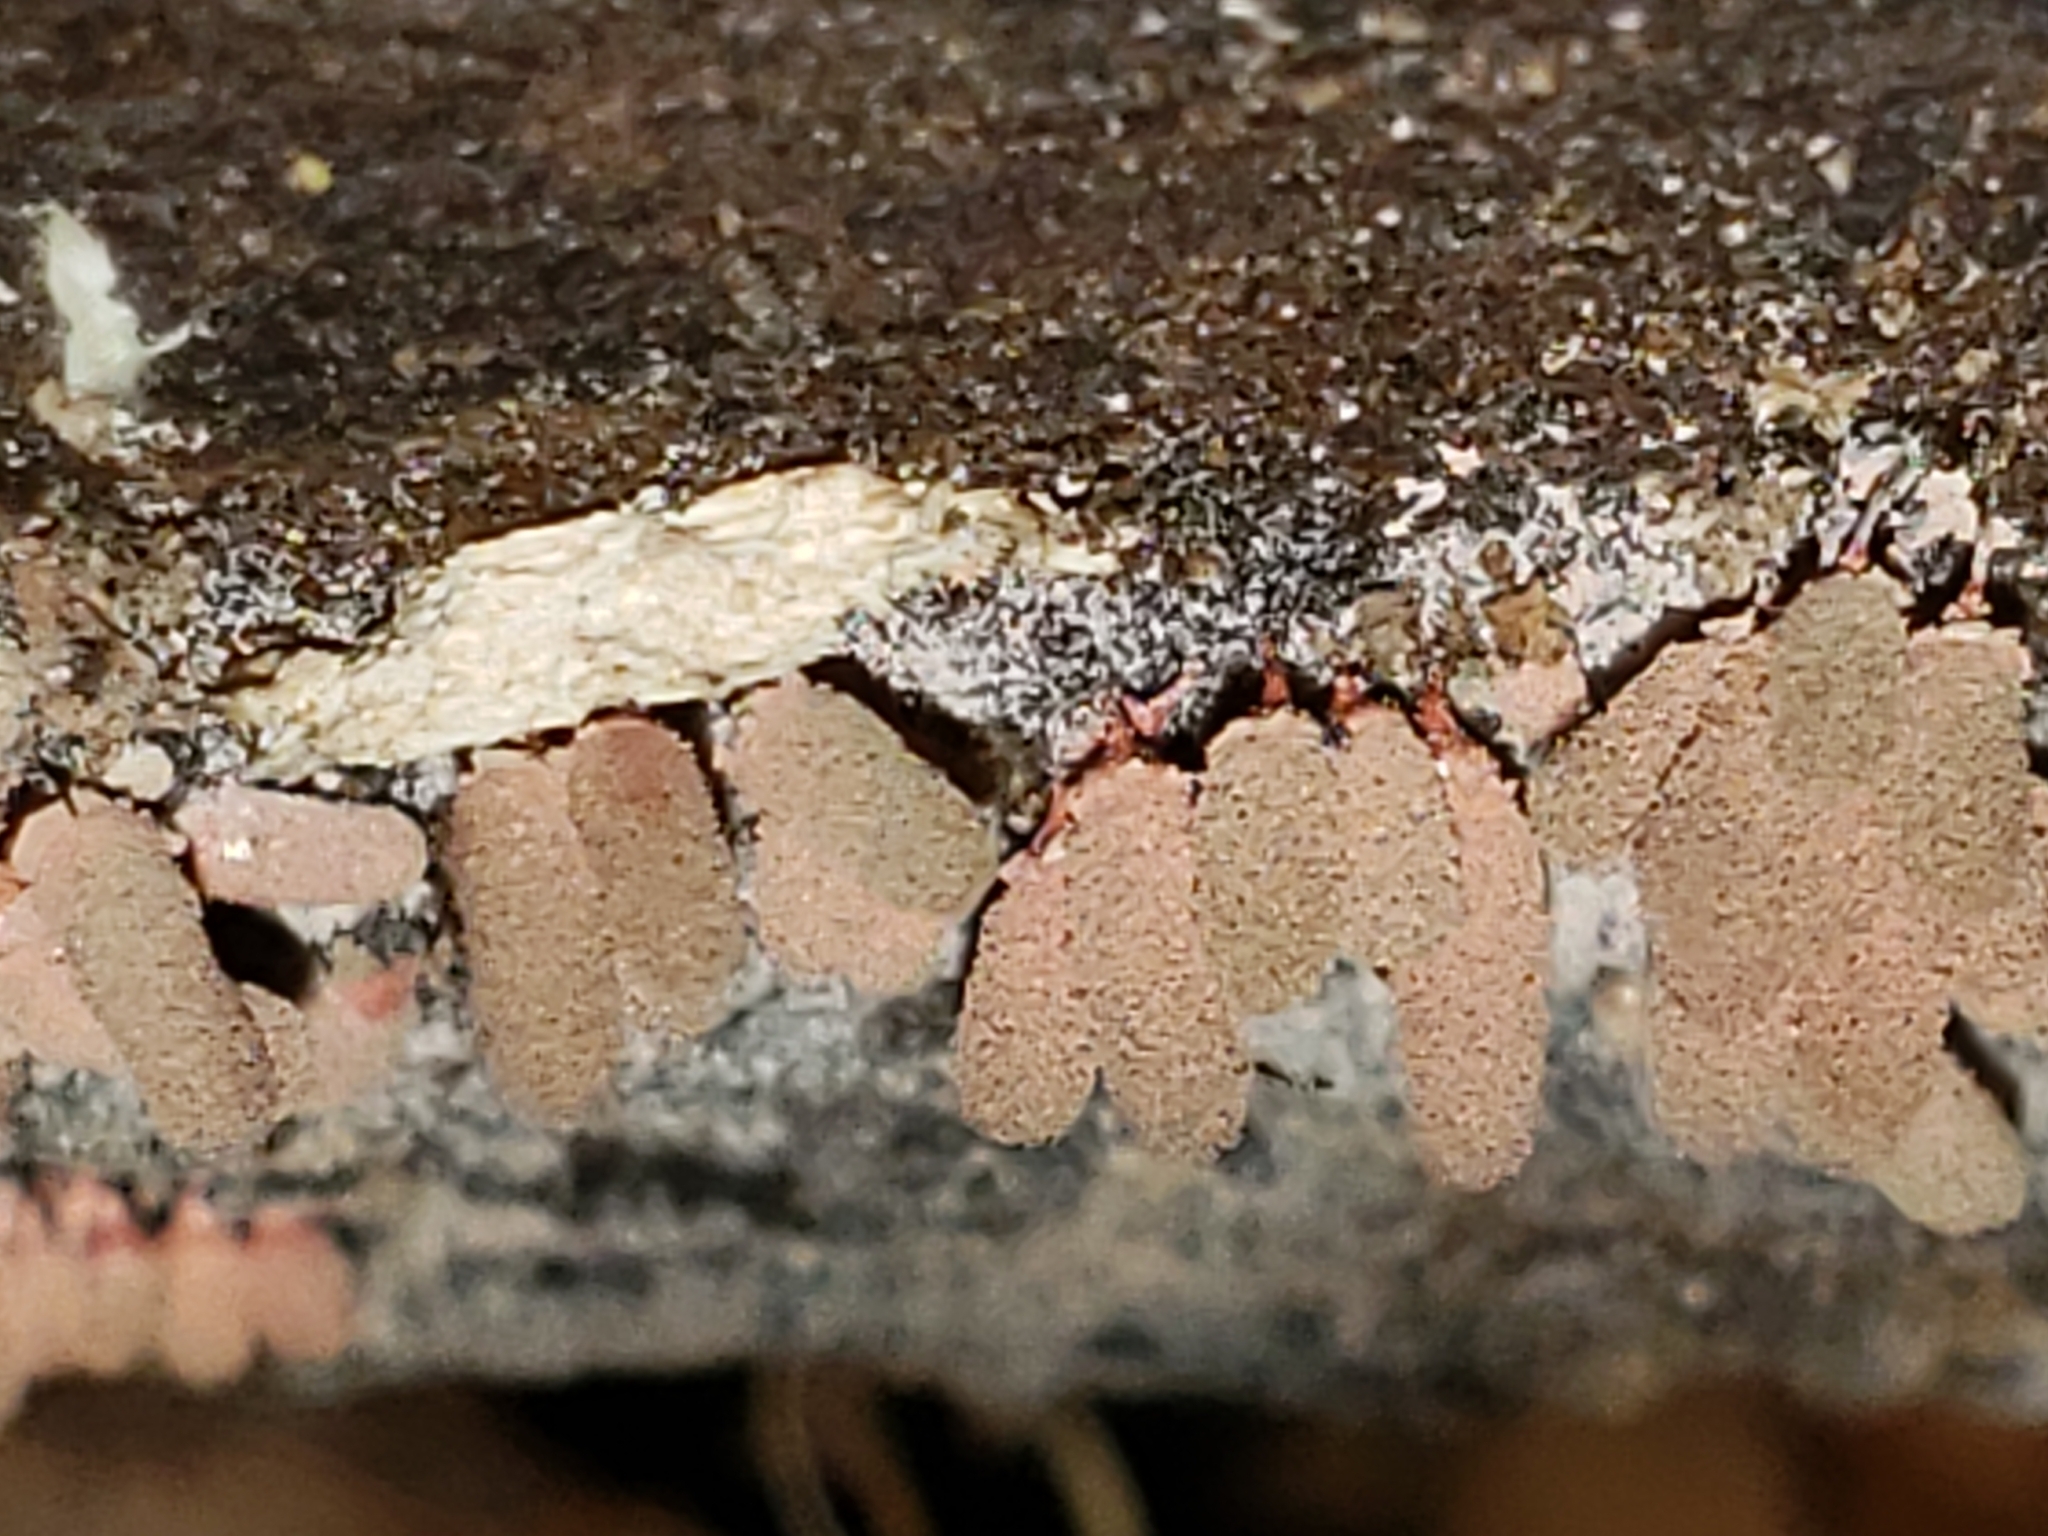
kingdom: Protozoa
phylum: Mycetozoa
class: Myxomycetes
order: Trichiales
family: Arcyriaceae
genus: Arcyria
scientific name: Arcyria denudata
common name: Carnival candy slime mold
